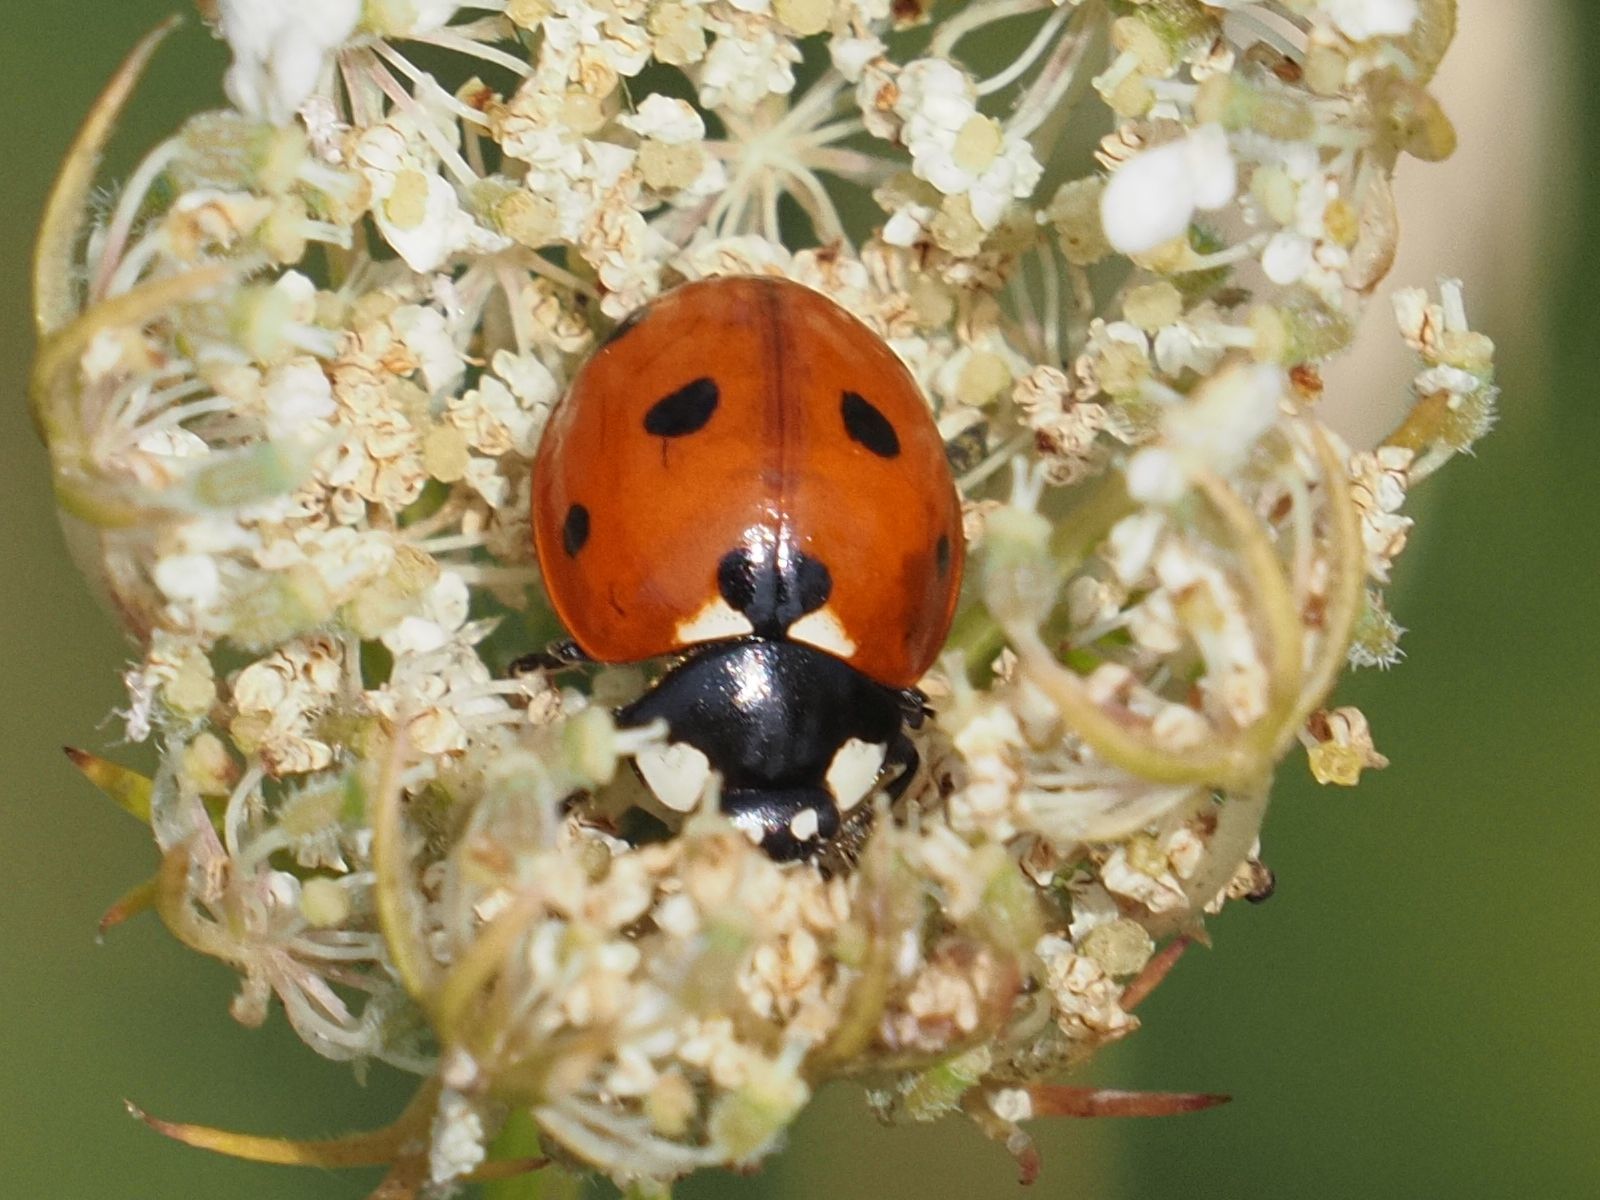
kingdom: Animalia
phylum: Arthropoda
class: Insecta
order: Coleoptera
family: Coccinellidae
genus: Coccinella
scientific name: Coccinella septempunctata
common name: Sevenspotted lady beetle
